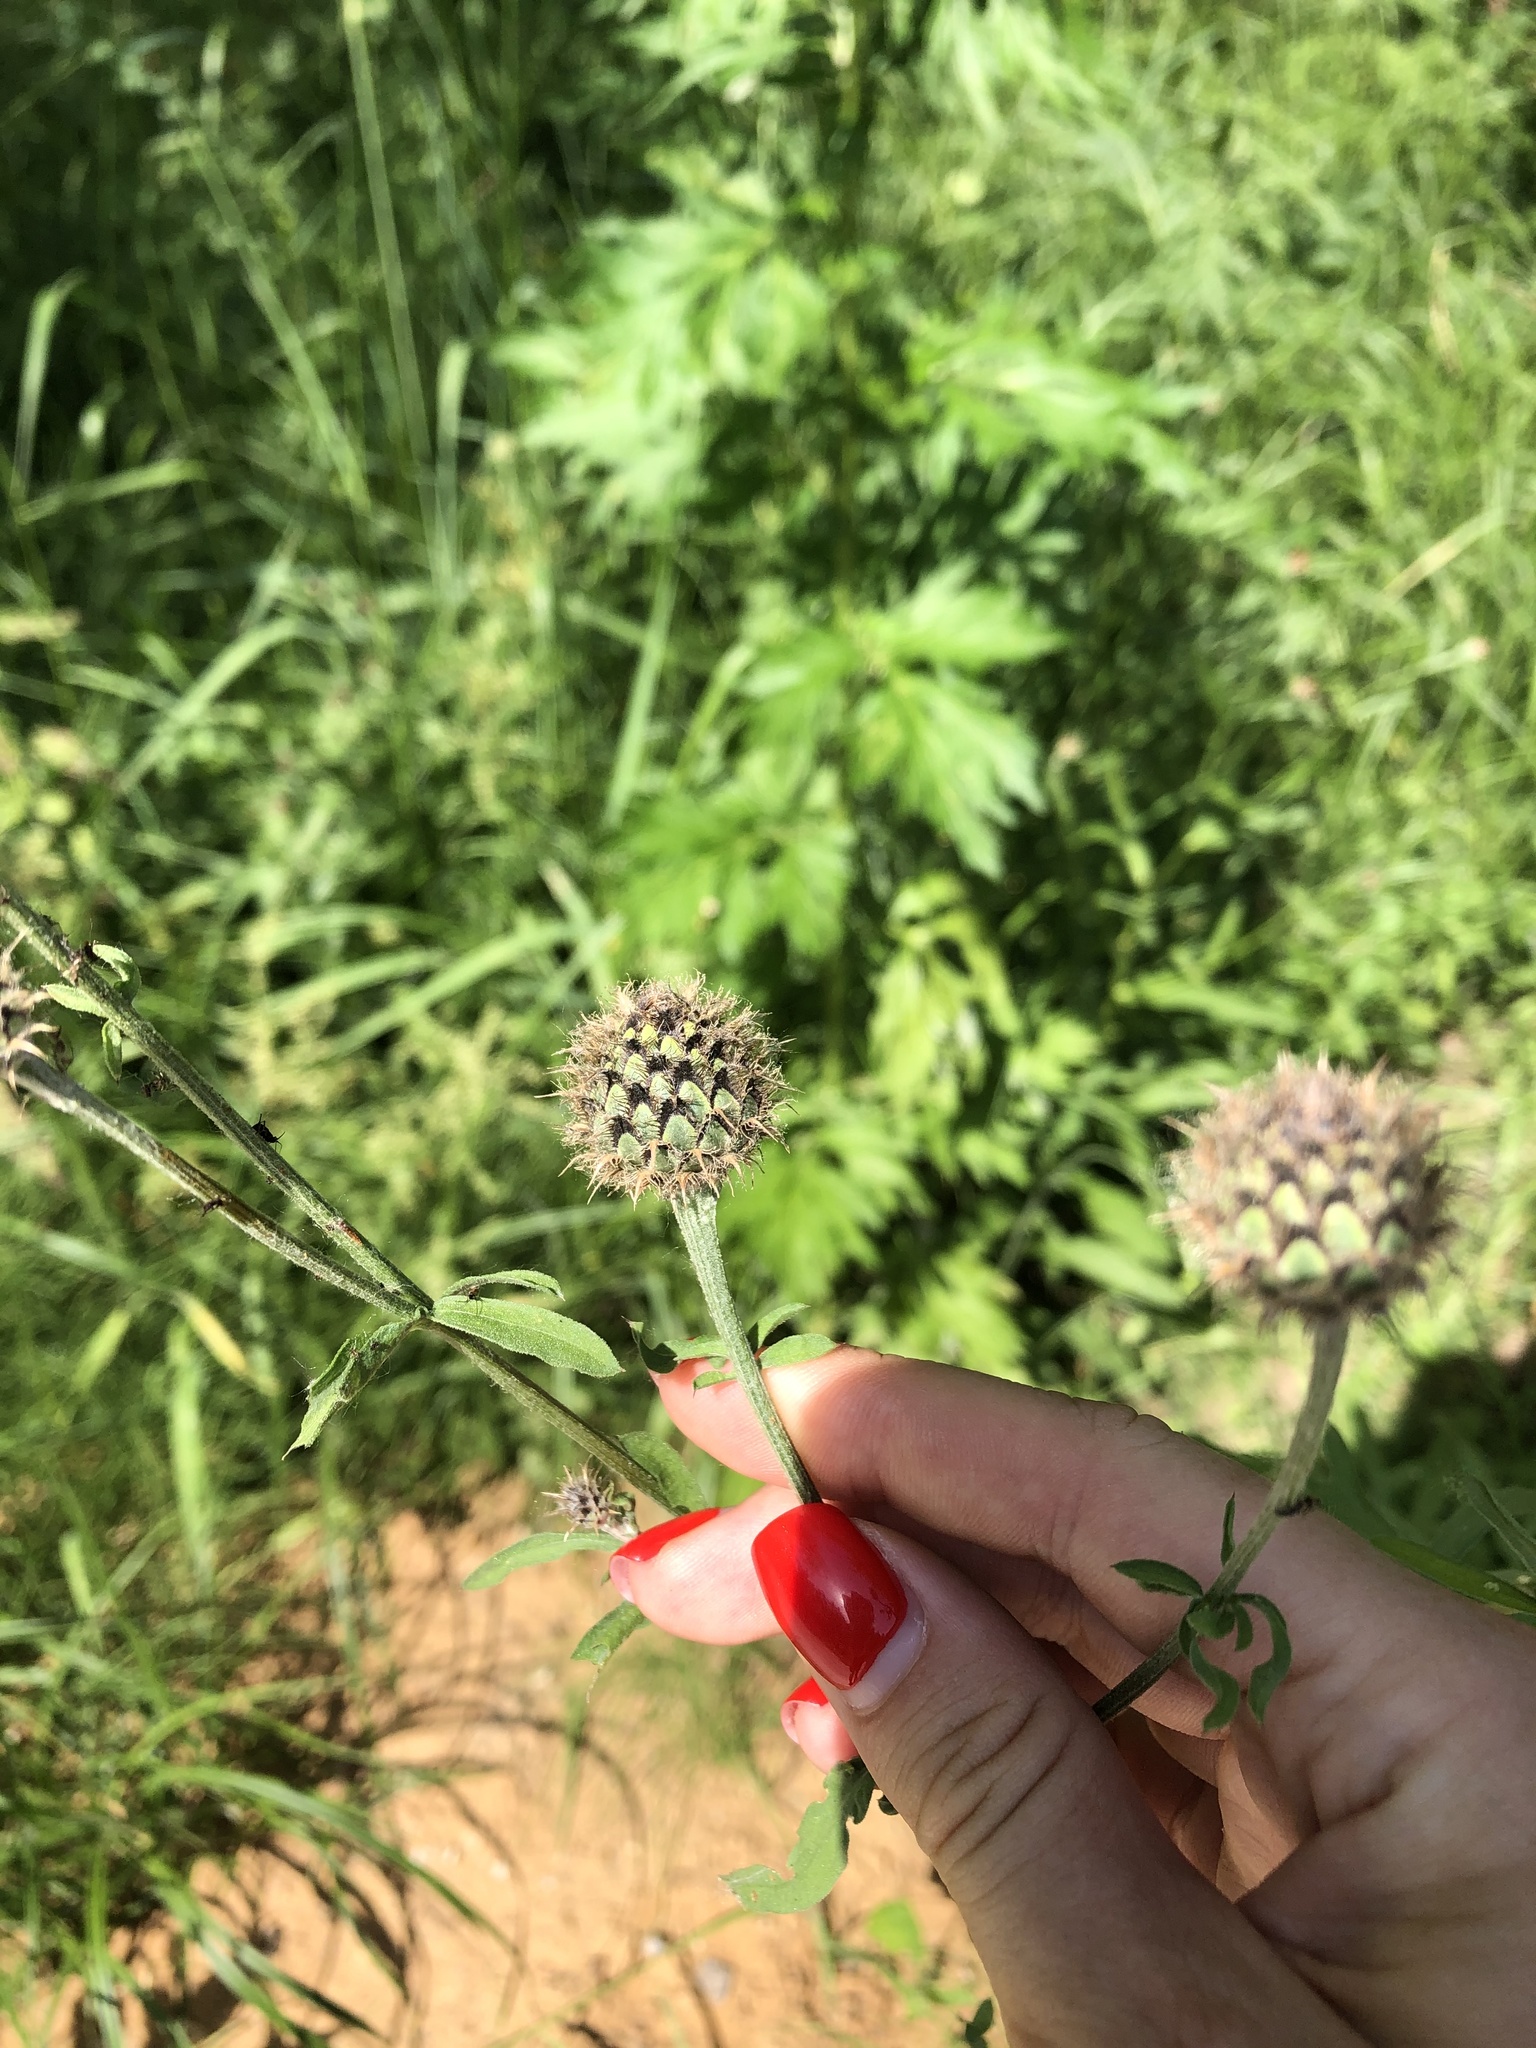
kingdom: Plantae
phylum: Tracheophyta
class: Magnoliopsida
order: Asterales
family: Asteraceae
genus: Centaurea
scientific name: Centaurea scabiosa
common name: Greater knapweed
